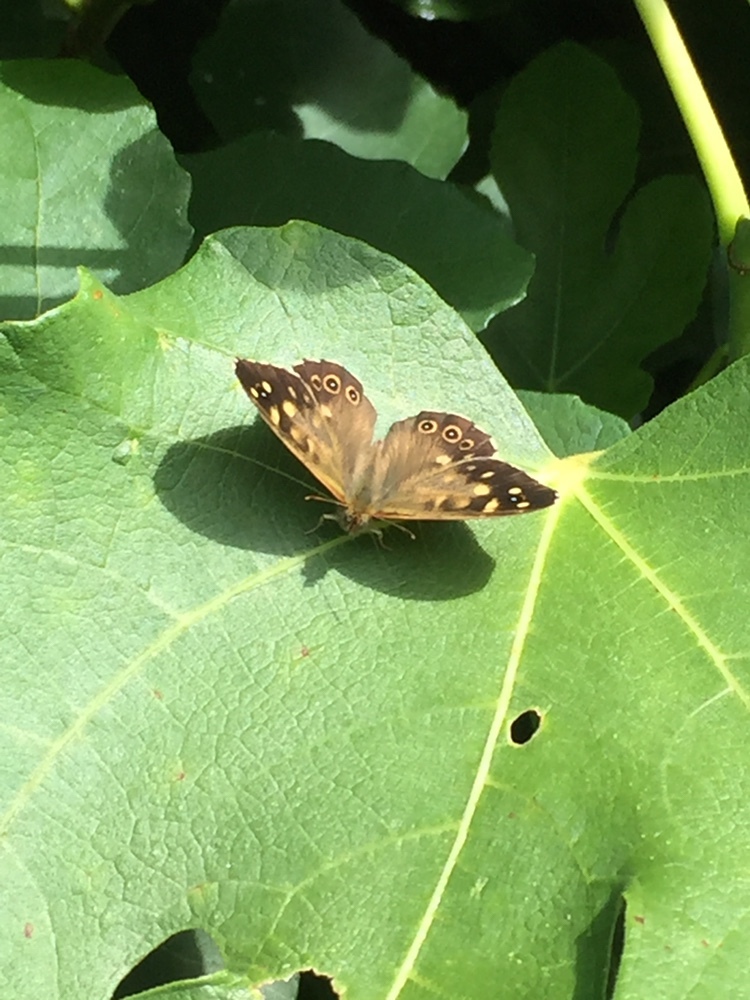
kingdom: Animalia
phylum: Arthropoda
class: Insecta
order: Lepidoptera
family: Nymphalidae
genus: Pararge
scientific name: Pararge aegeria
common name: Speckled wood
